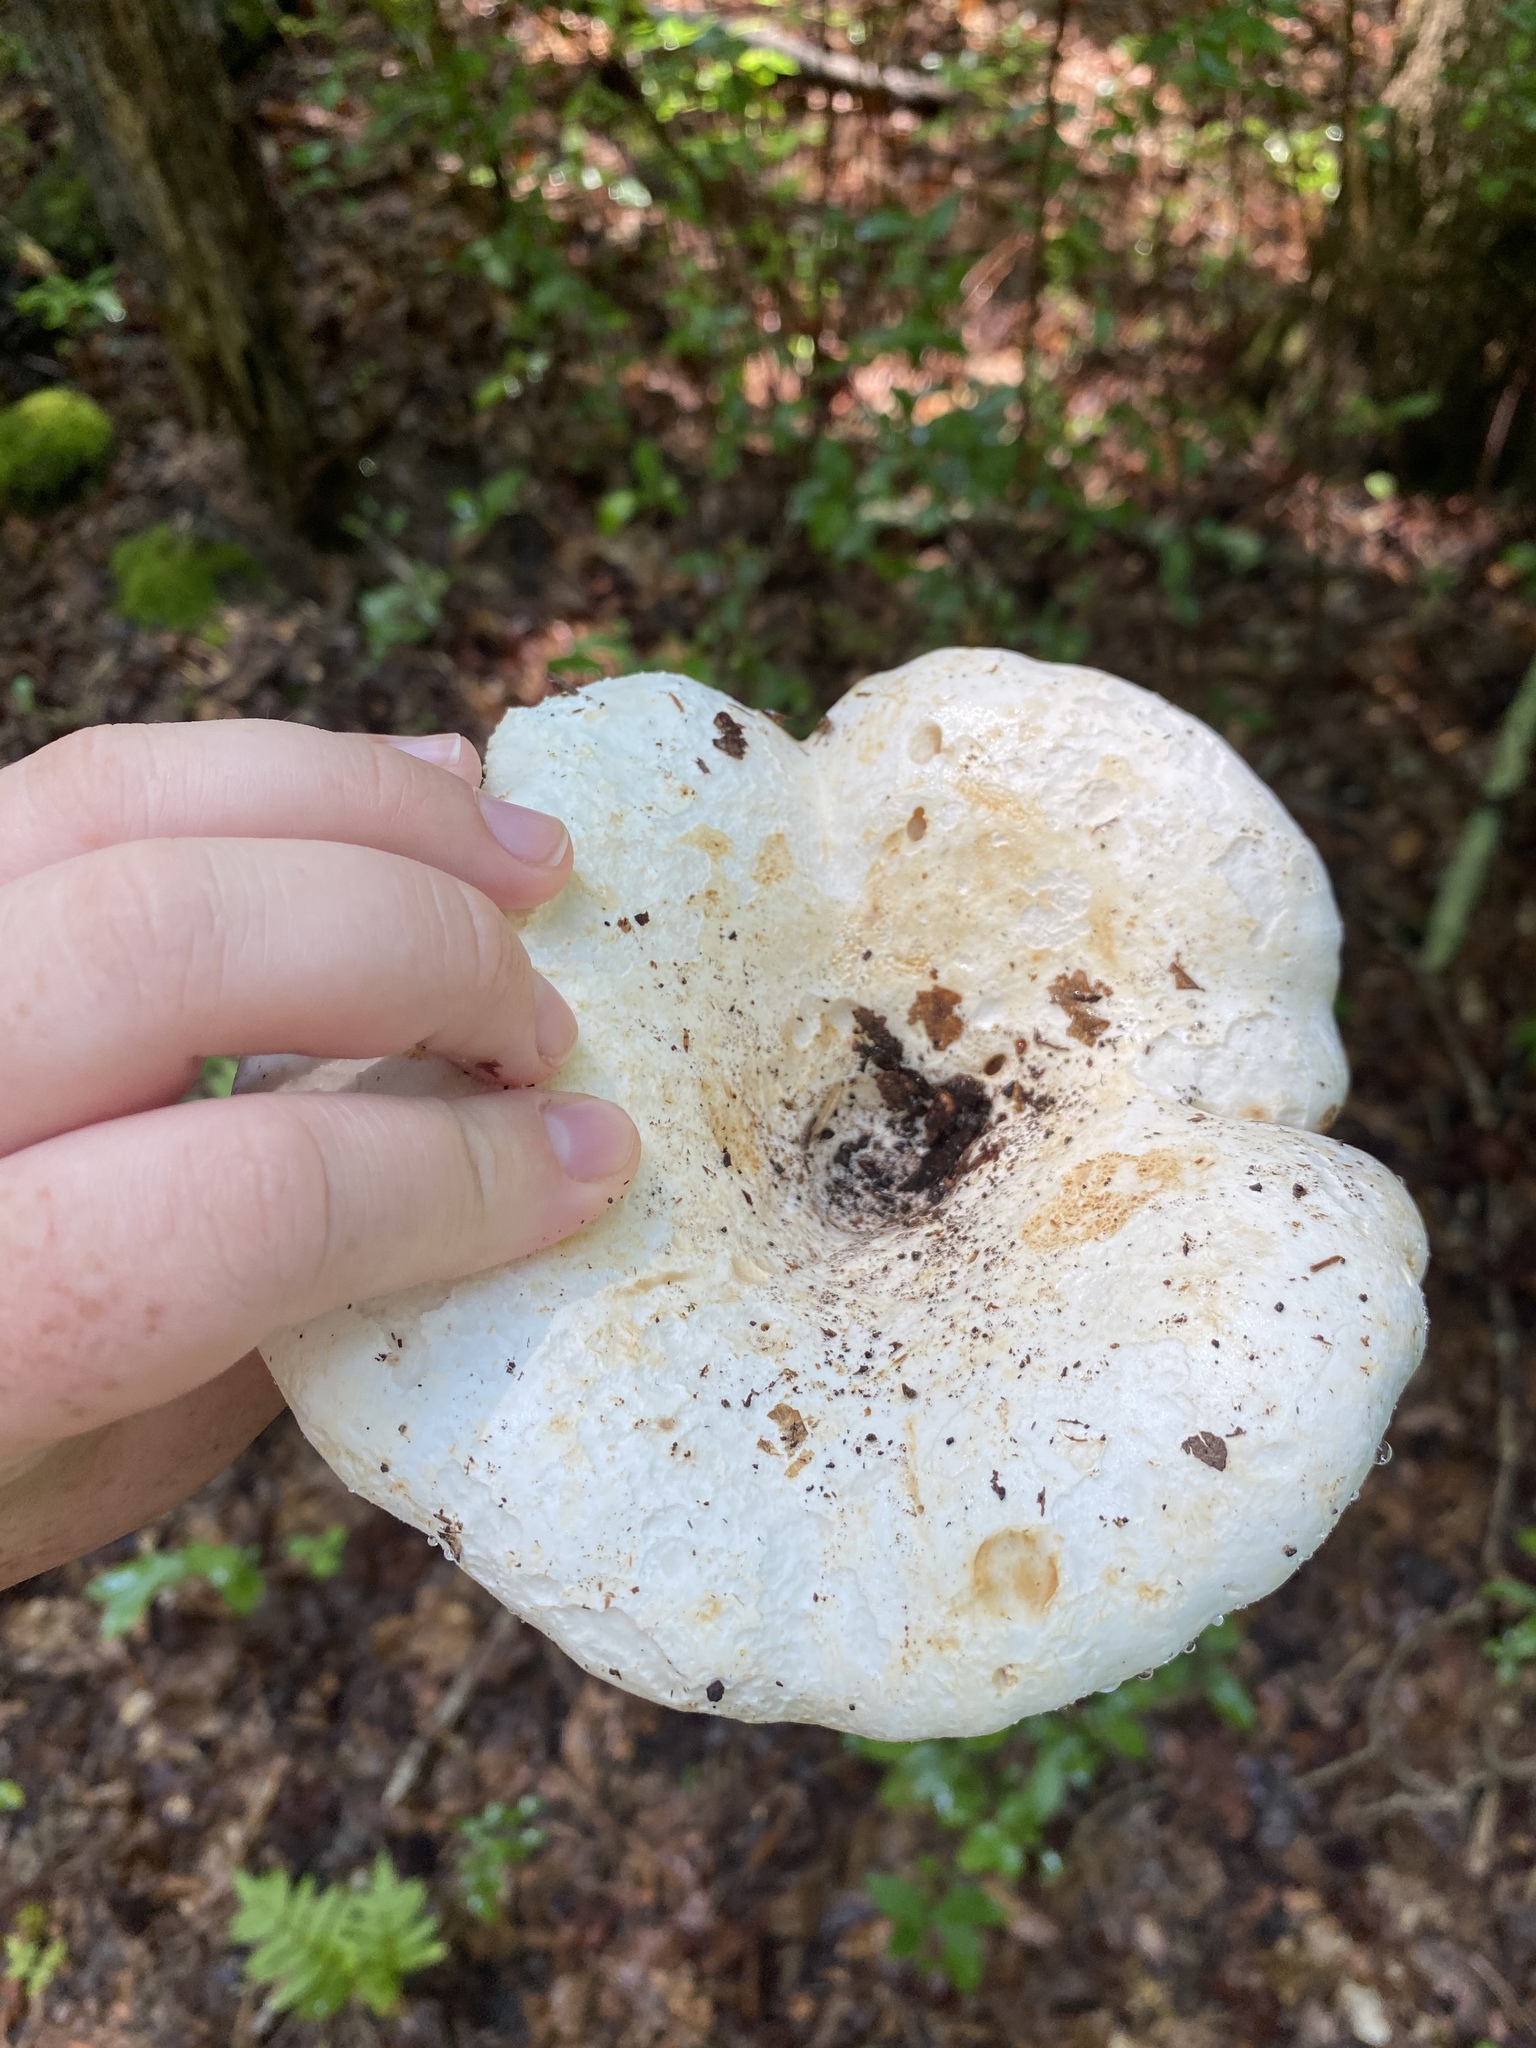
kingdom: Fungi
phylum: Basidiomycota
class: Agaricomycetes
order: Russulales
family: Russulaceae
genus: Russula
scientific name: Russula brevipes
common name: Short-stemmed russula
